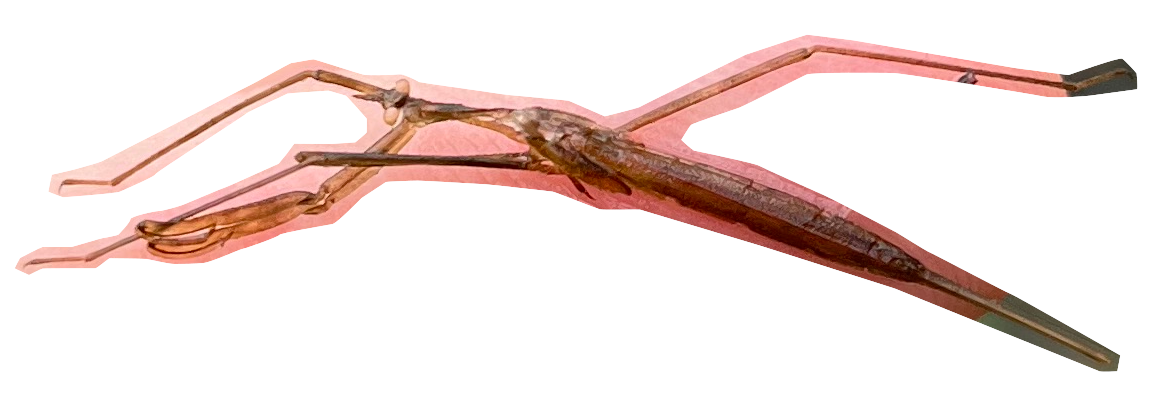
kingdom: Animalia
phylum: Arthropoda
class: Insecta
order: Hemiptera
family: Nepidae
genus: Ranatra
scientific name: Ranatra montezuma
